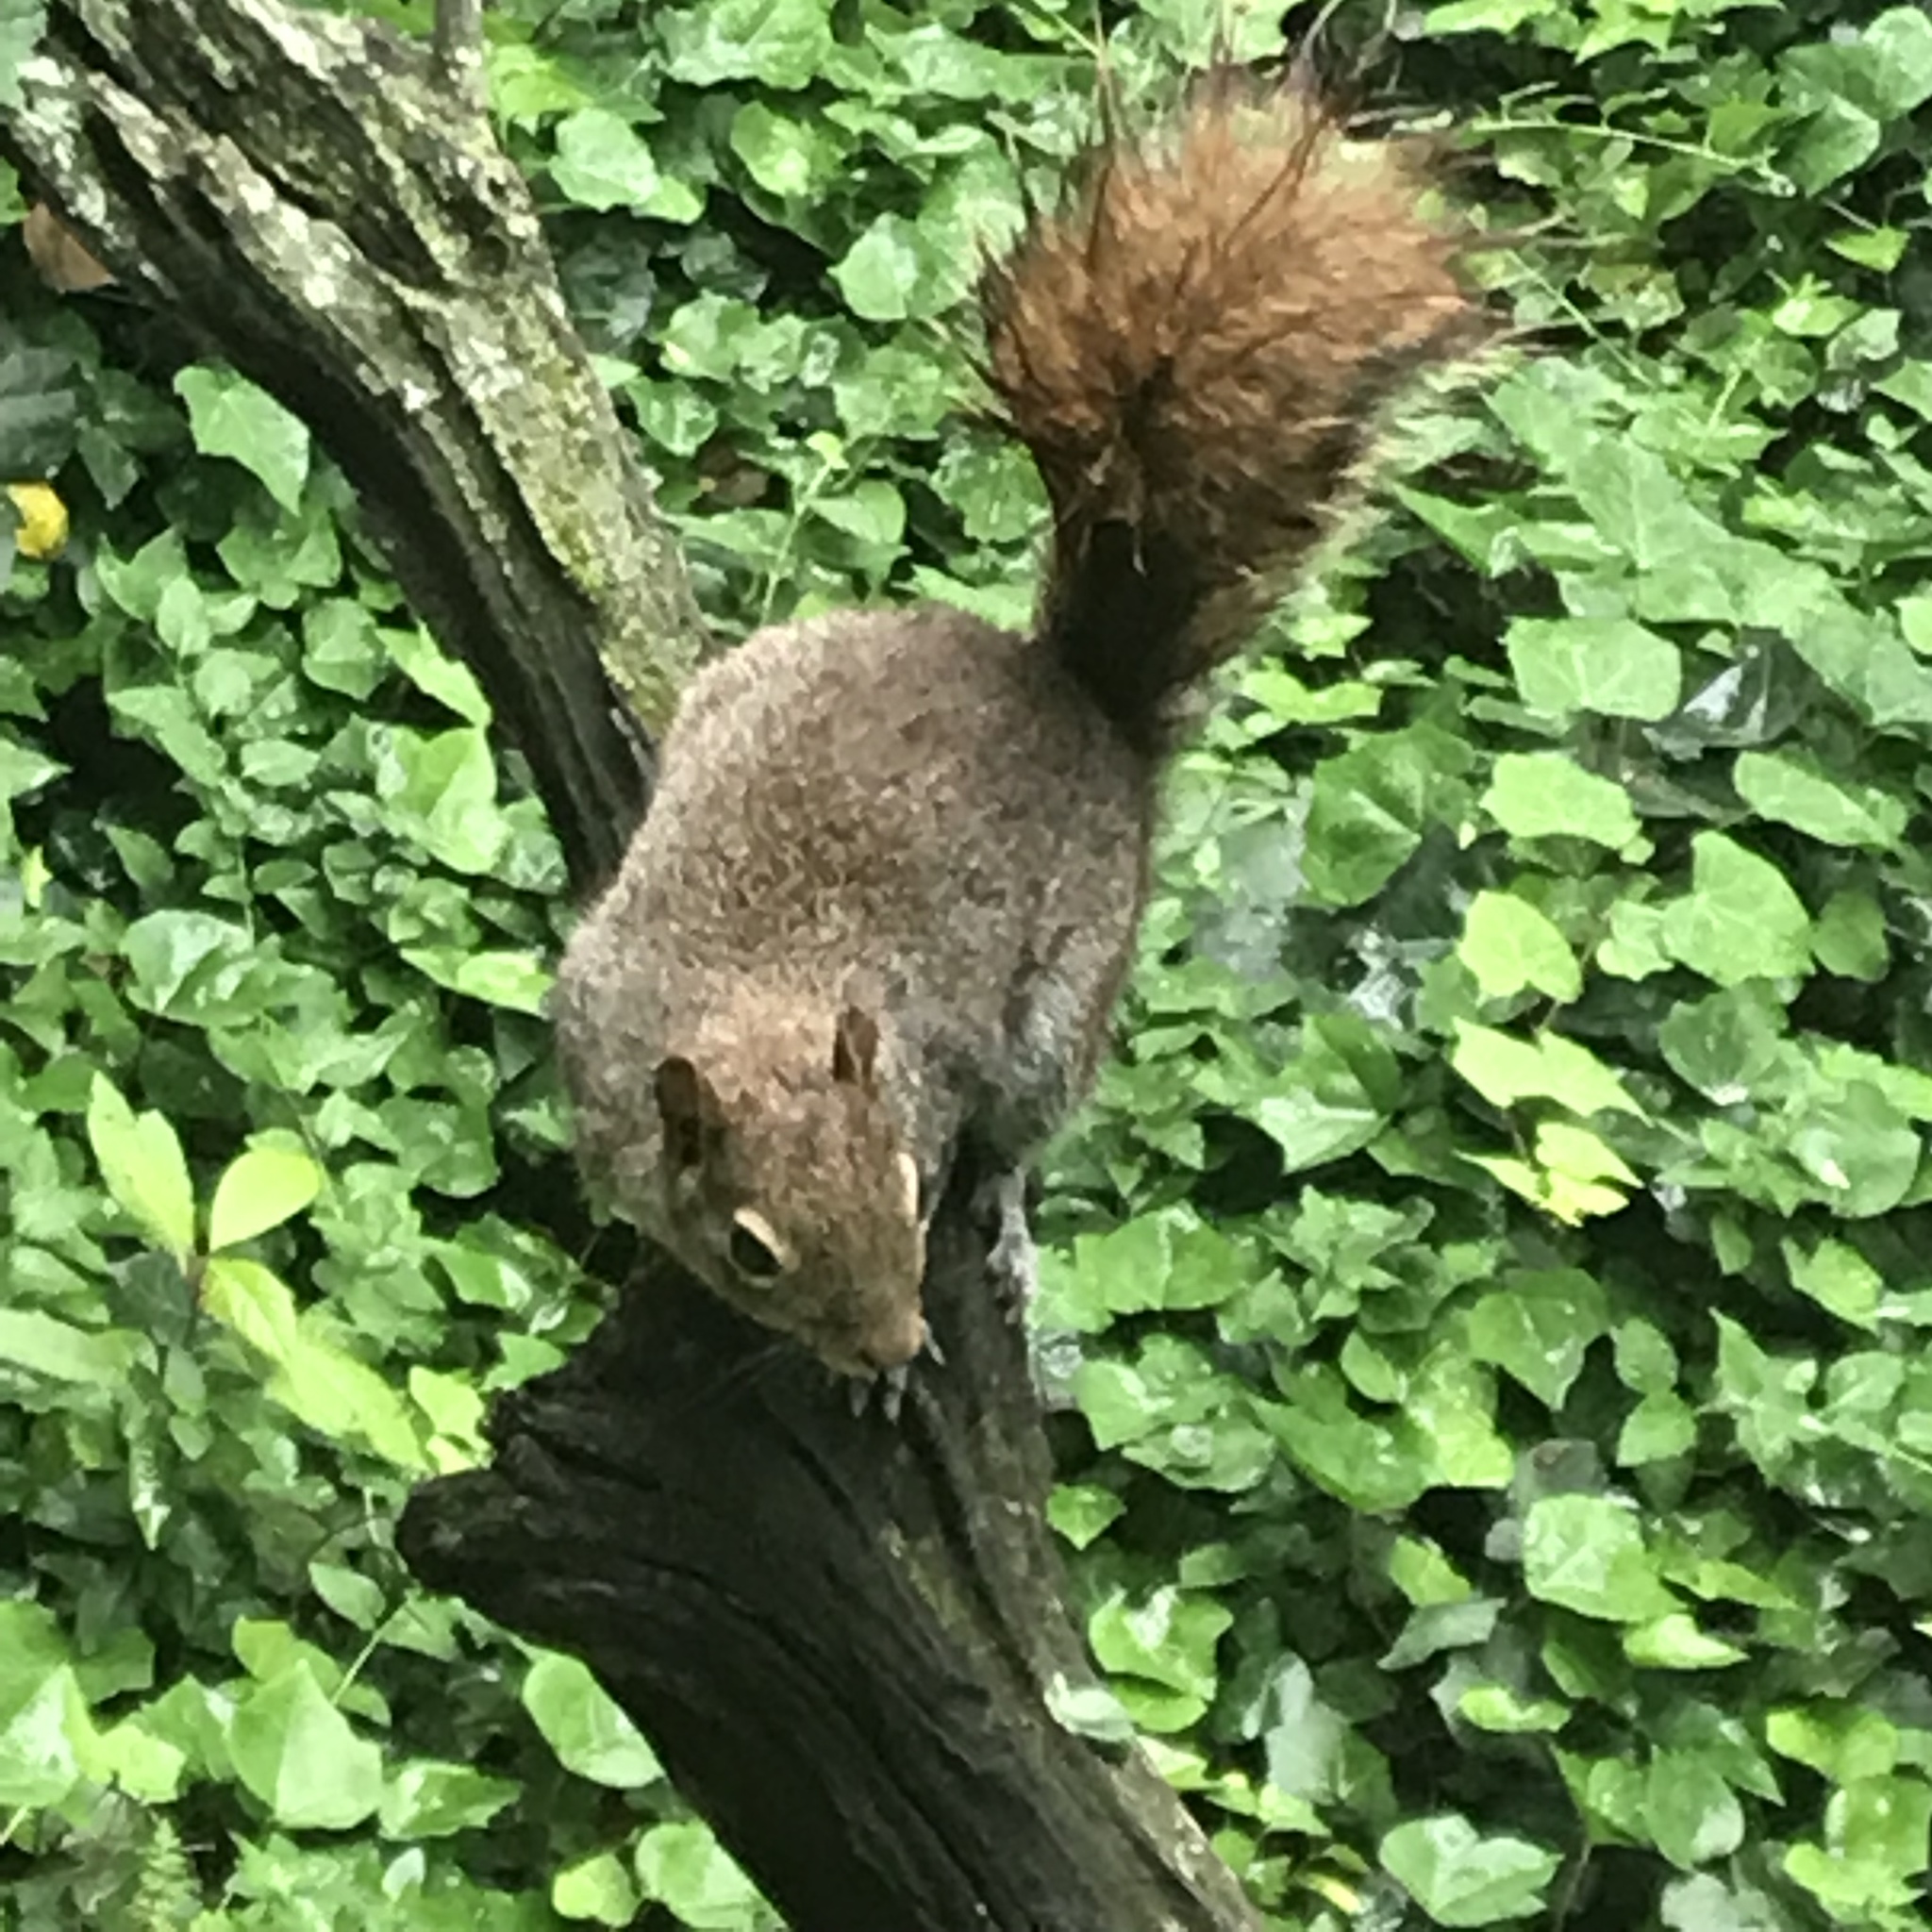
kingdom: Animalia
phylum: Chordata
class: Mammalia
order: Rodentia
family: Sciuridae
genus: Sciurus
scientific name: Sciurus alleni
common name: Allen's squirrel
